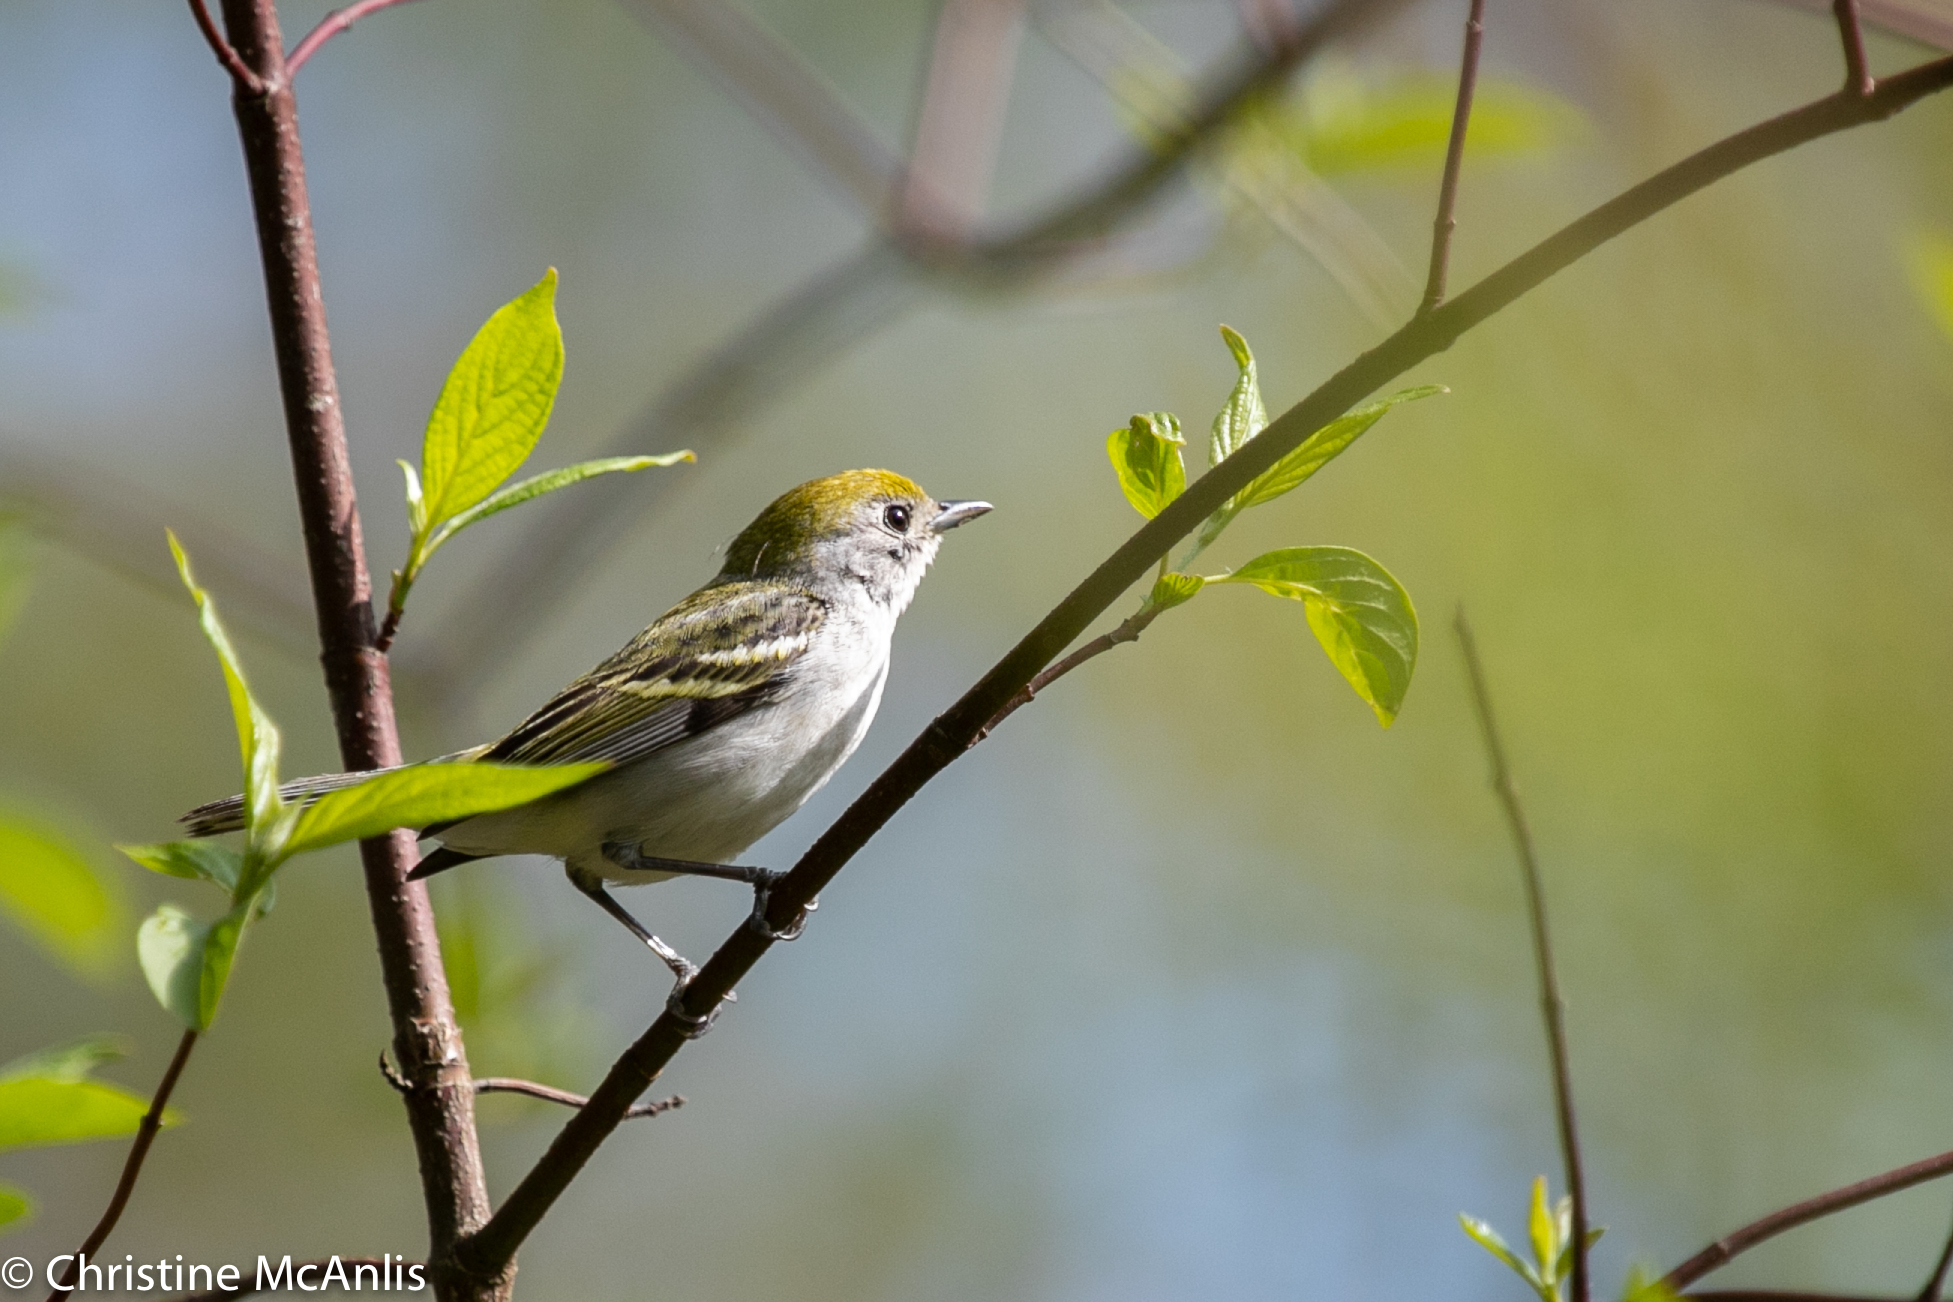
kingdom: Animalia
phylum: Chordata
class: Aves
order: Passeriformes
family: Parulidae
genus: Setophaga
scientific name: Setophaga pensylvanica
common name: Chestnut-sided warbler
